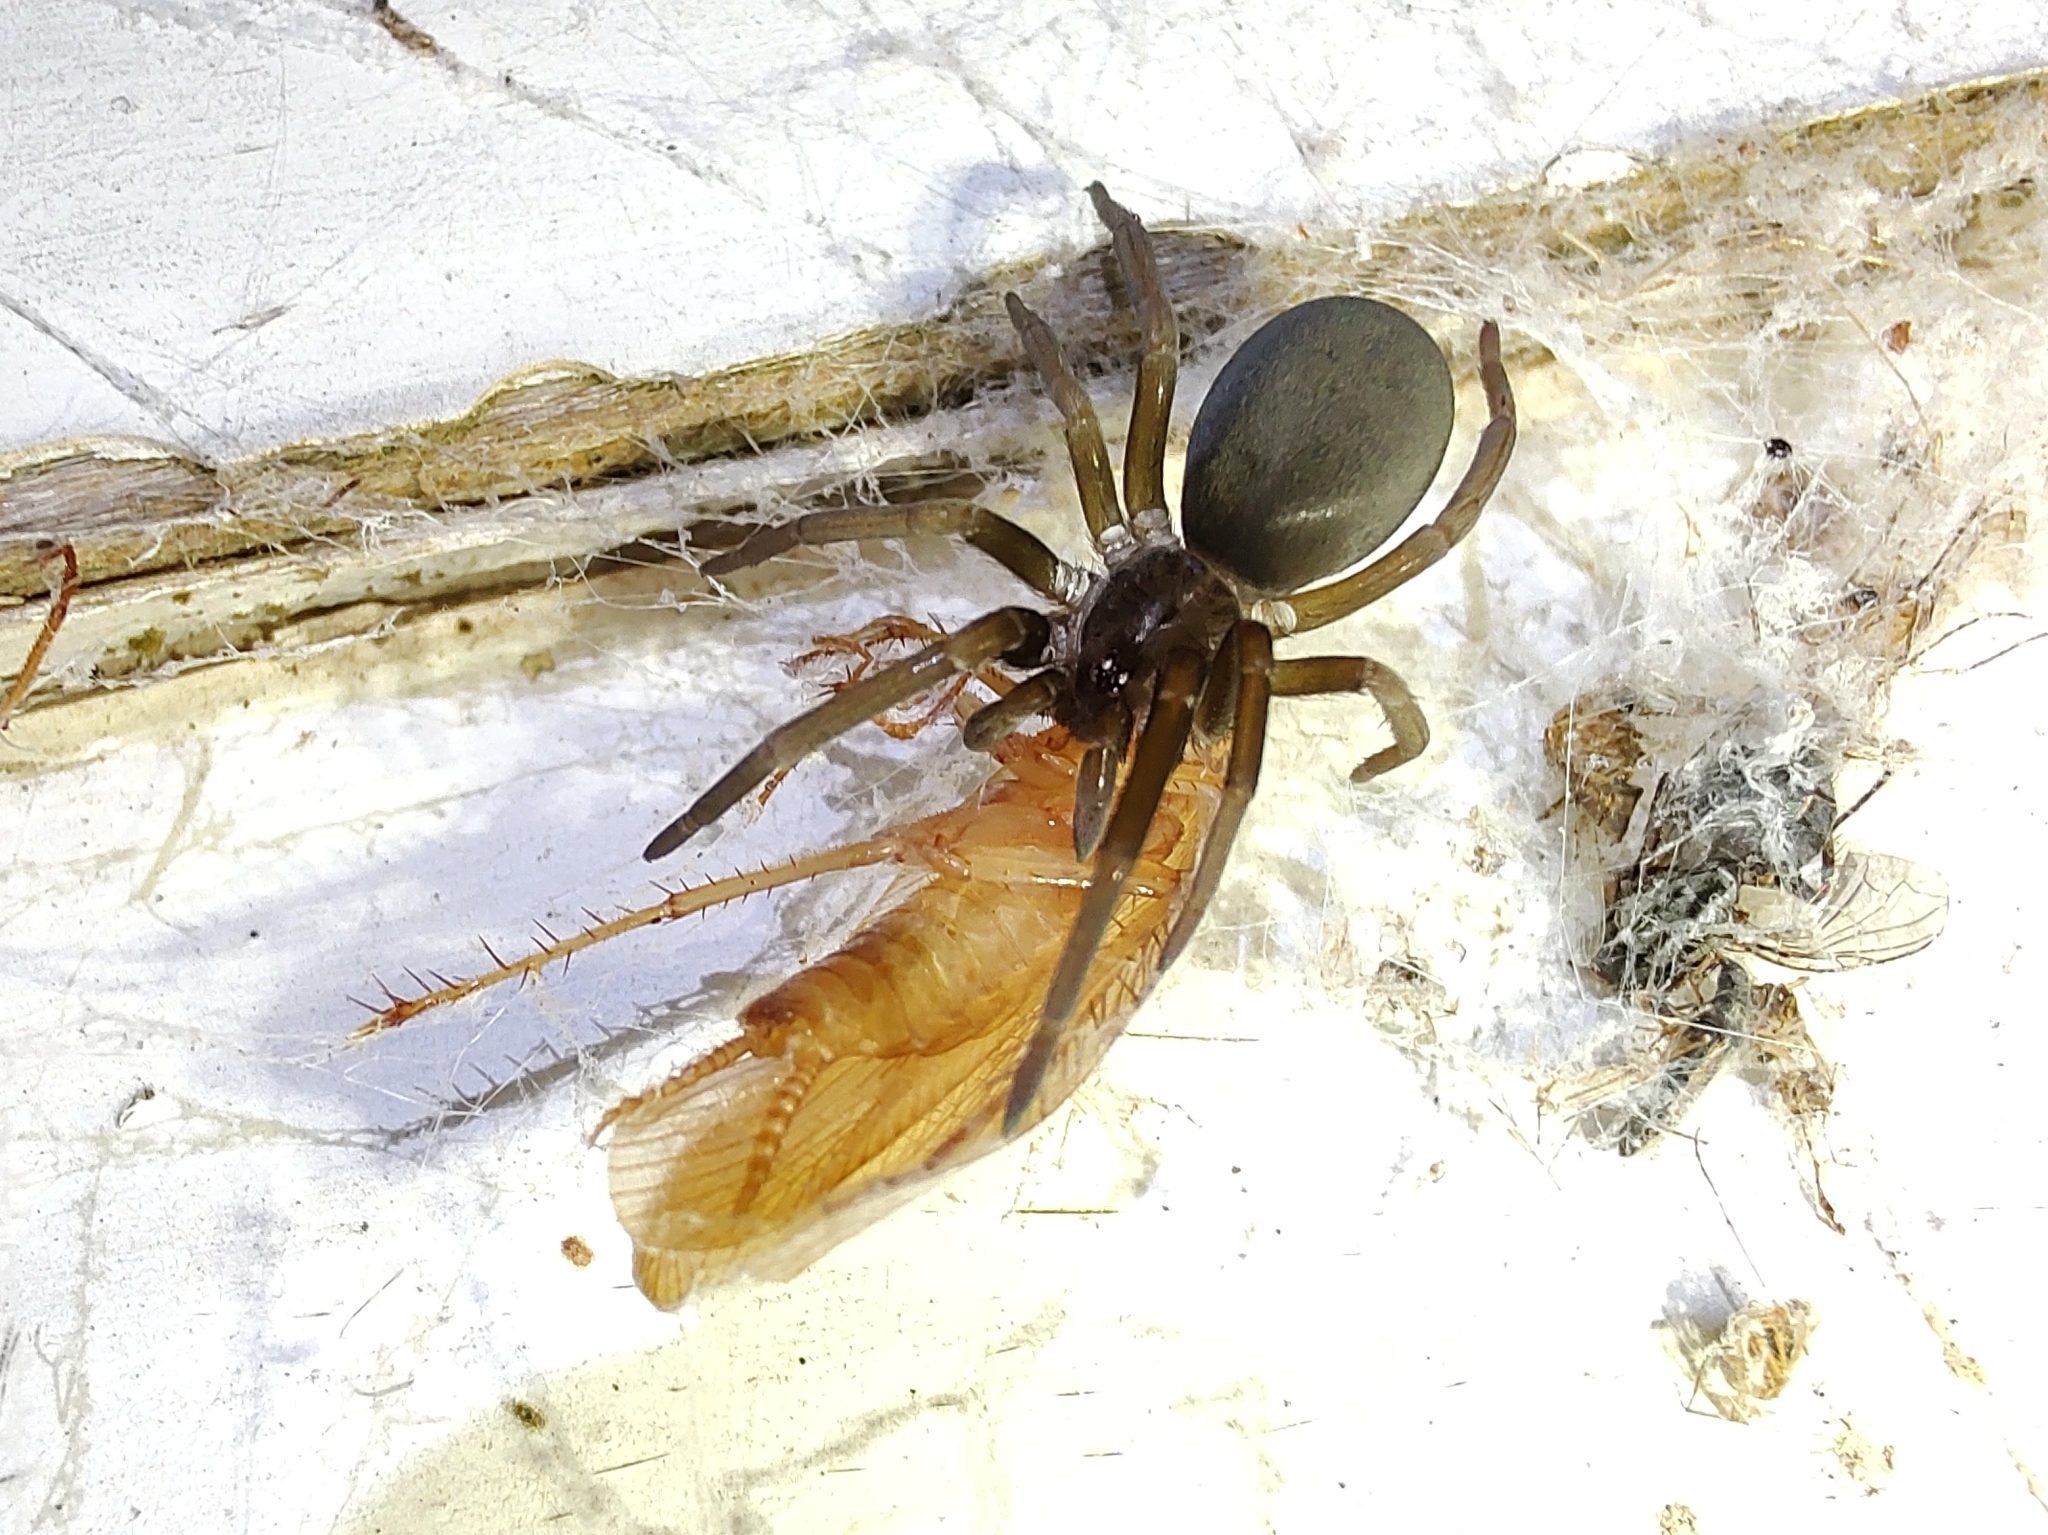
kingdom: Animalia
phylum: Arthropoda
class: Arachnida
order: Araneae
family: Filistatidae
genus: Kukulcania
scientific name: Kukulcania hibernalis
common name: Crevice weaver
